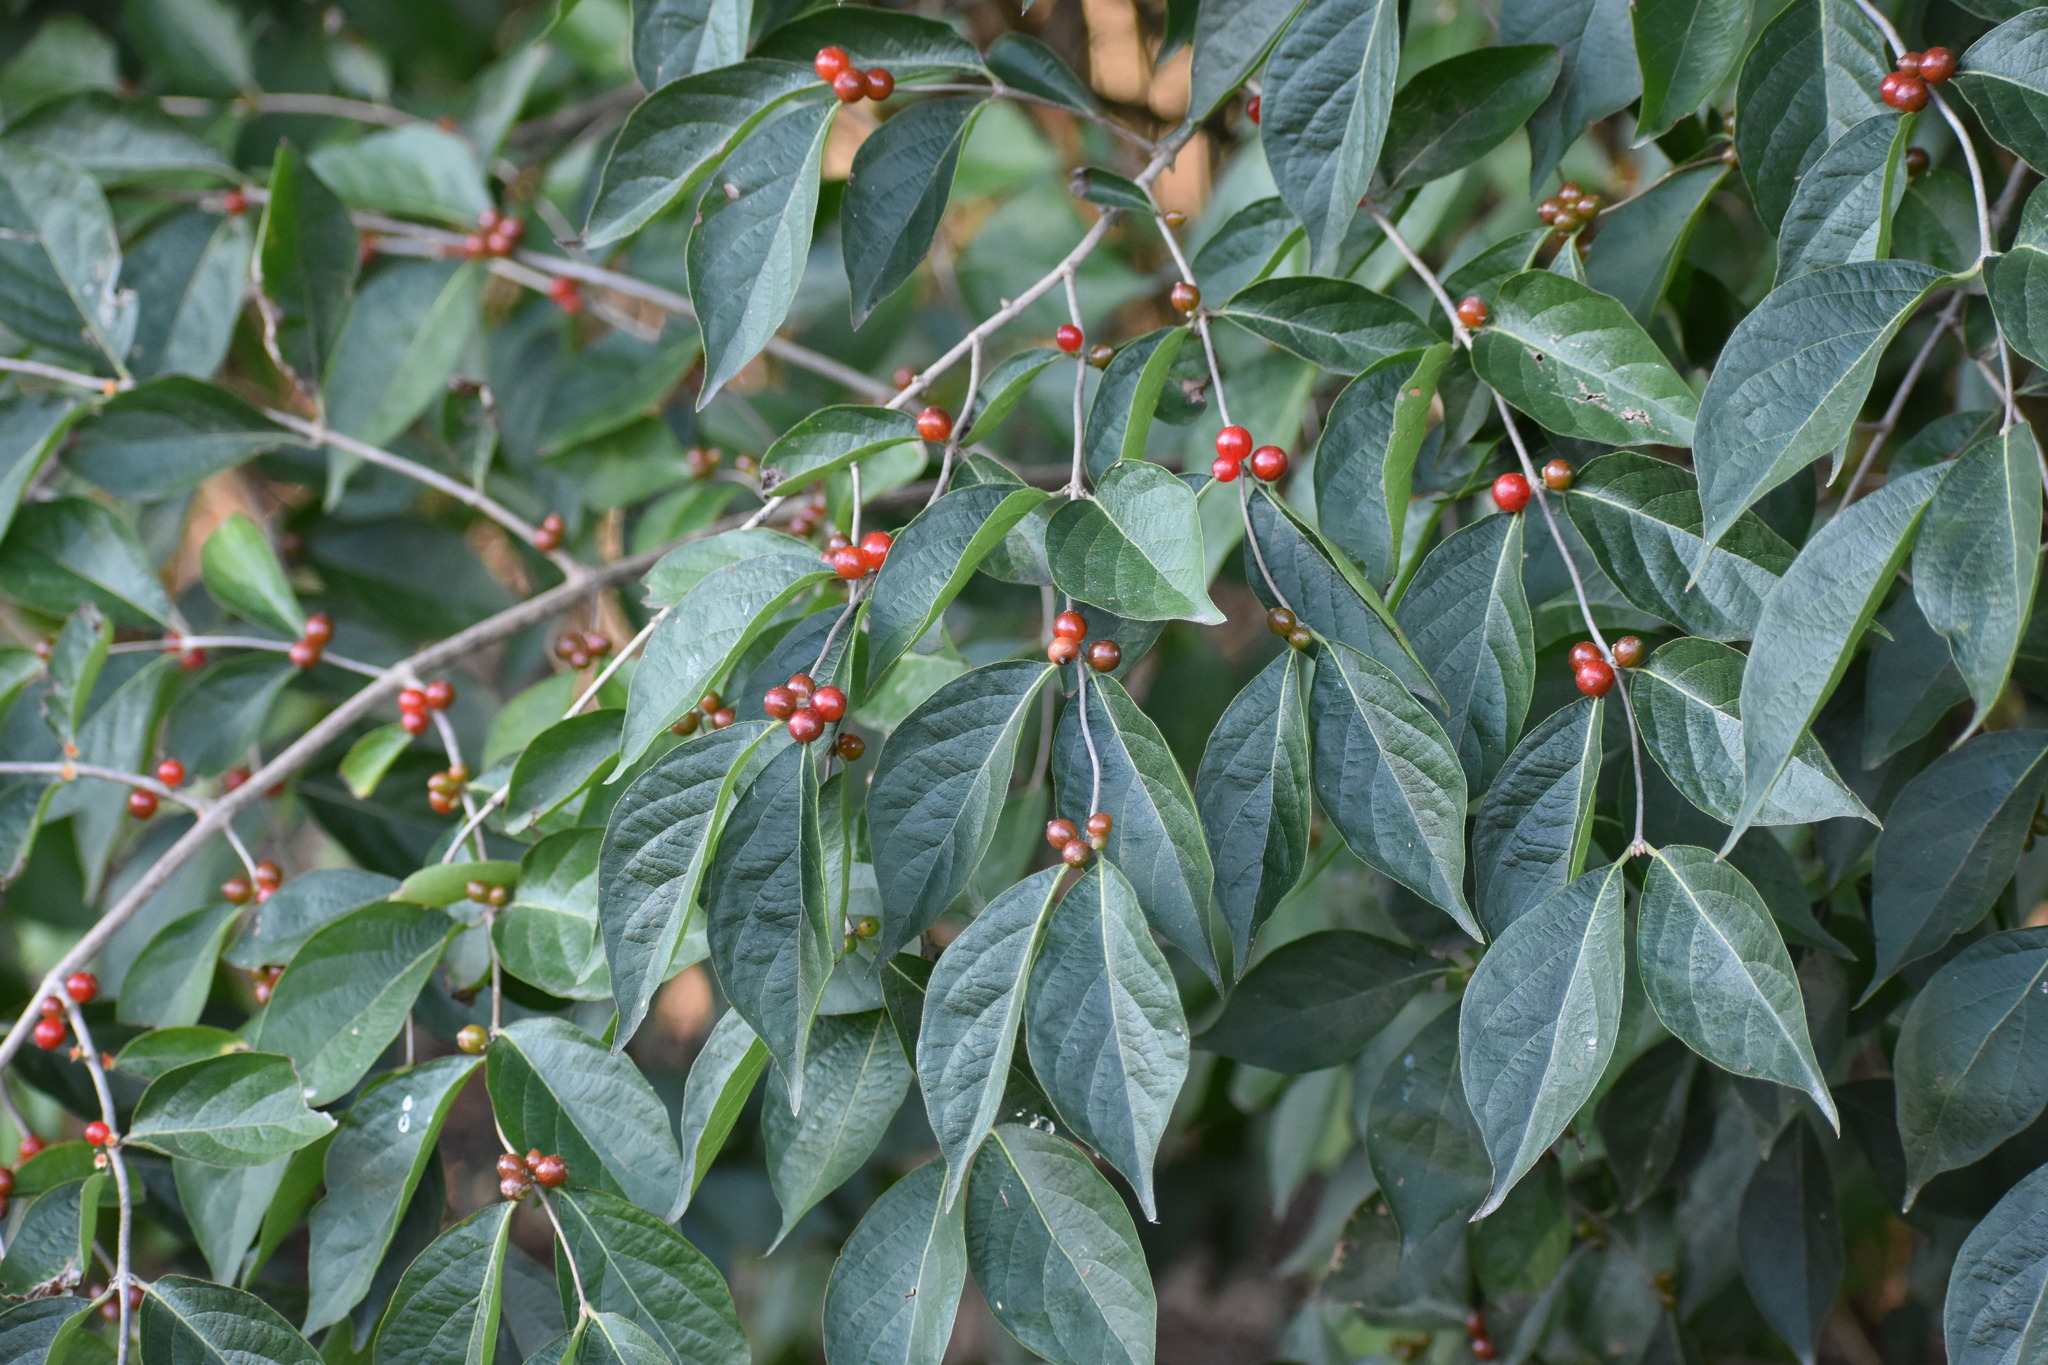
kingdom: Plantae
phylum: Tracheophyta
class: Magnoliopsida
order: Dipsacales
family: Caprifoliaceae
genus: Lonicera
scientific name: Lonicera maackii
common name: Amur honeysuckle
